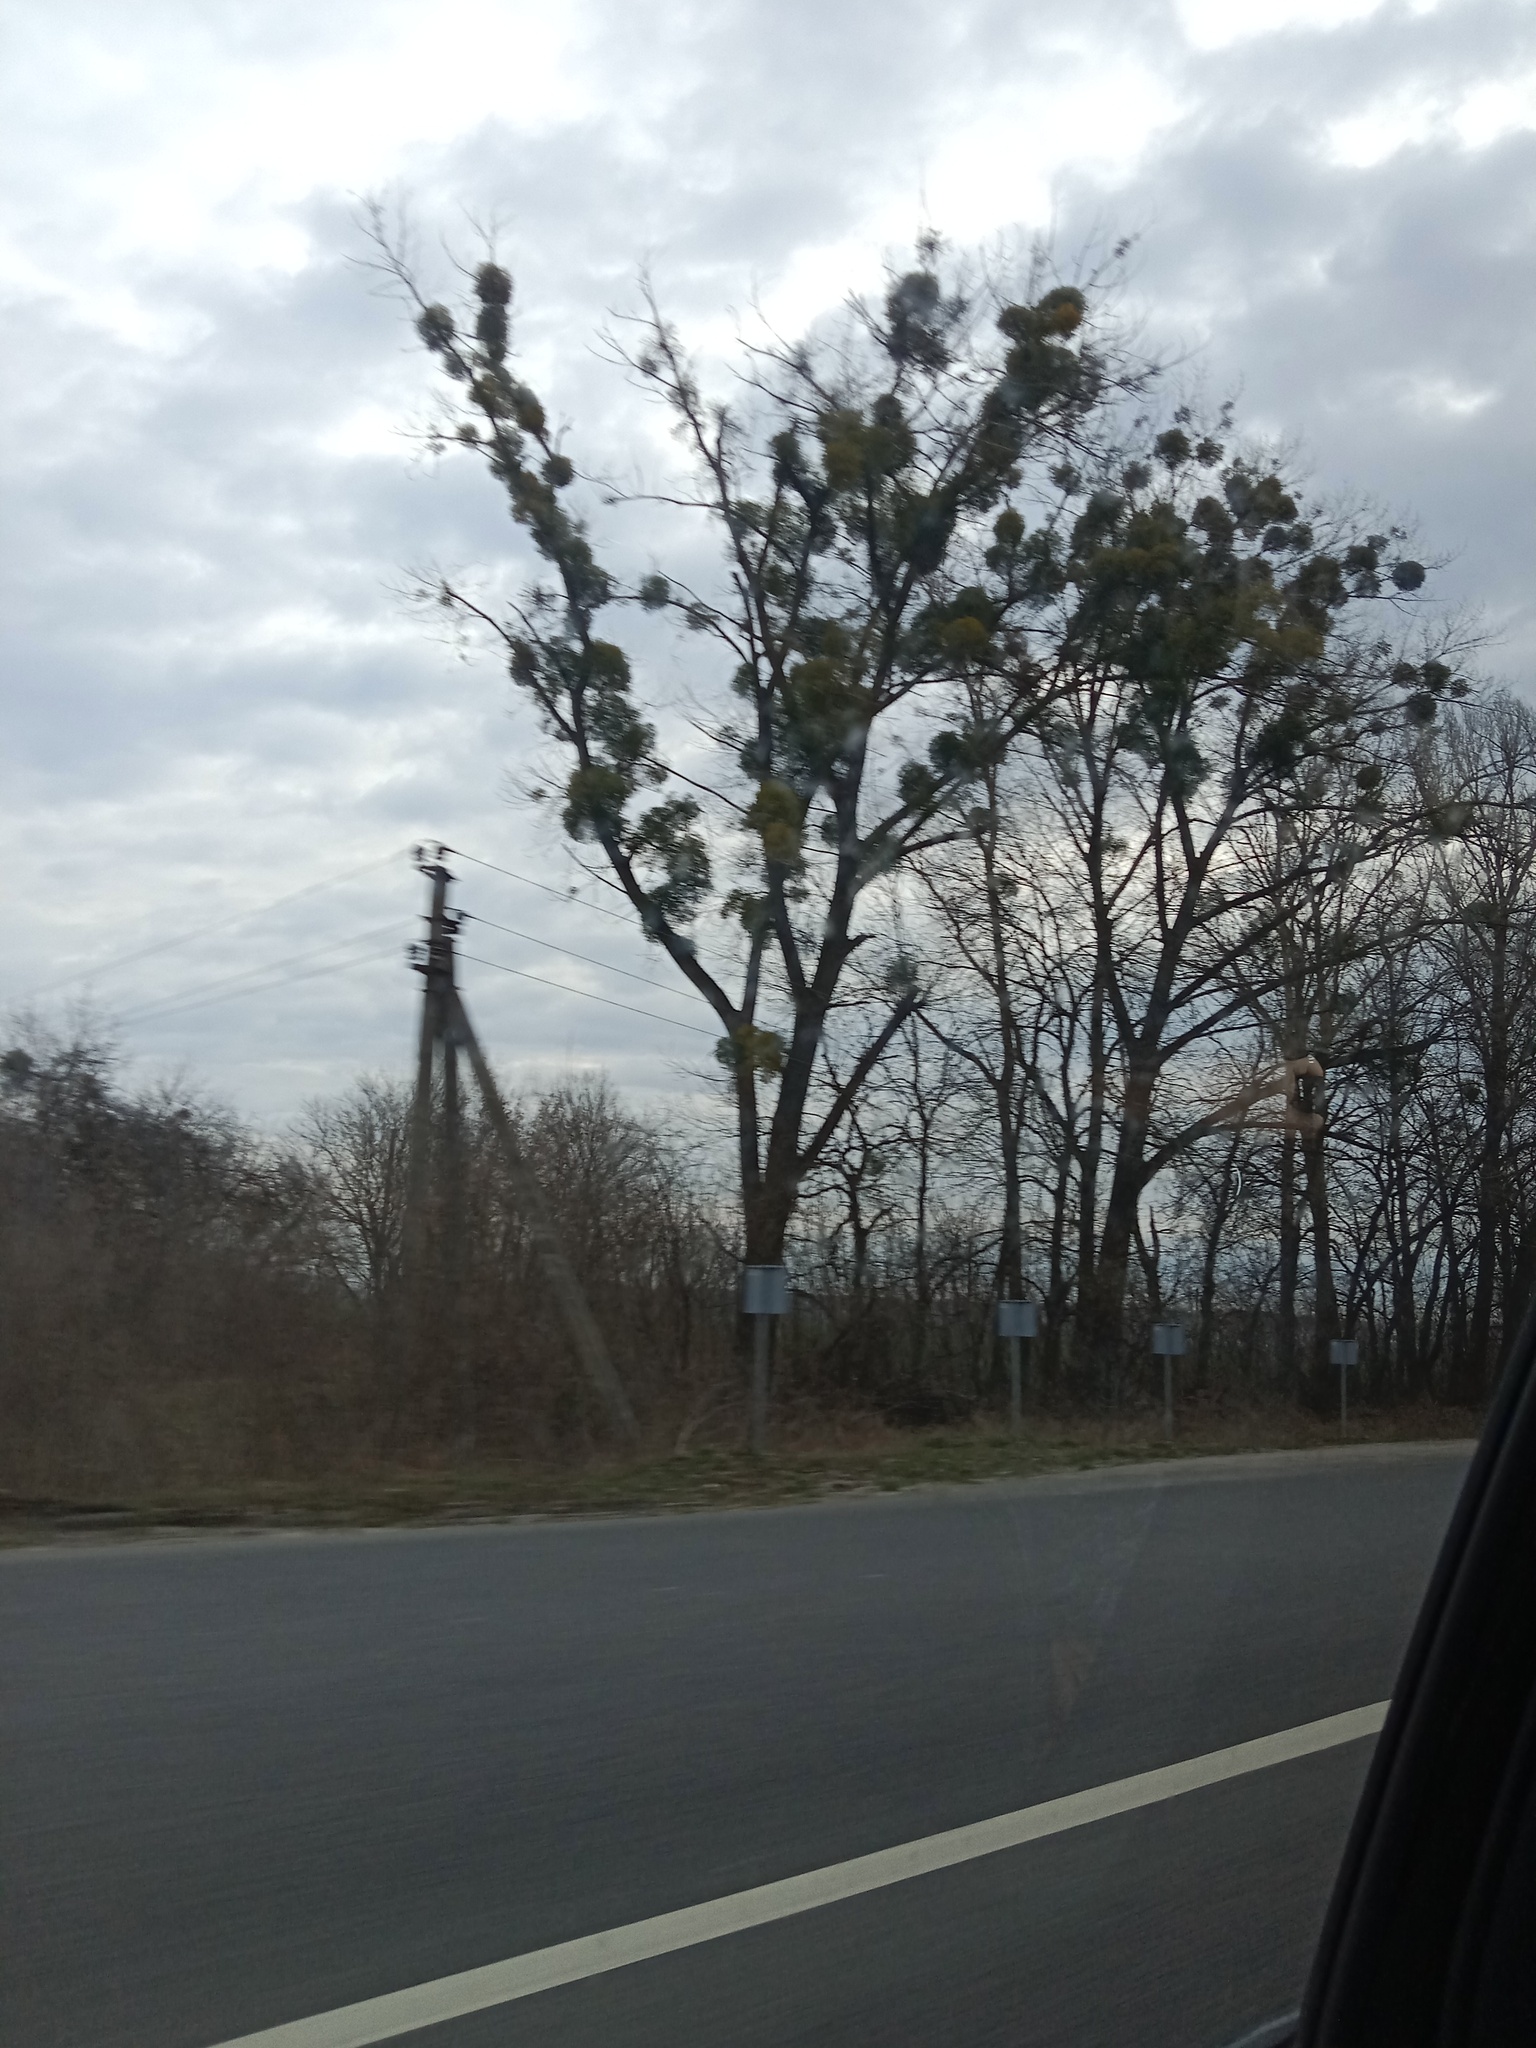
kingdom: Plantae
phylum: Tracheophyta
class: Magnoliopsida
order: Santalales
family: Viscaceae
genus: Viscum
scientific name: Viscum album
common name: Mistletoe
